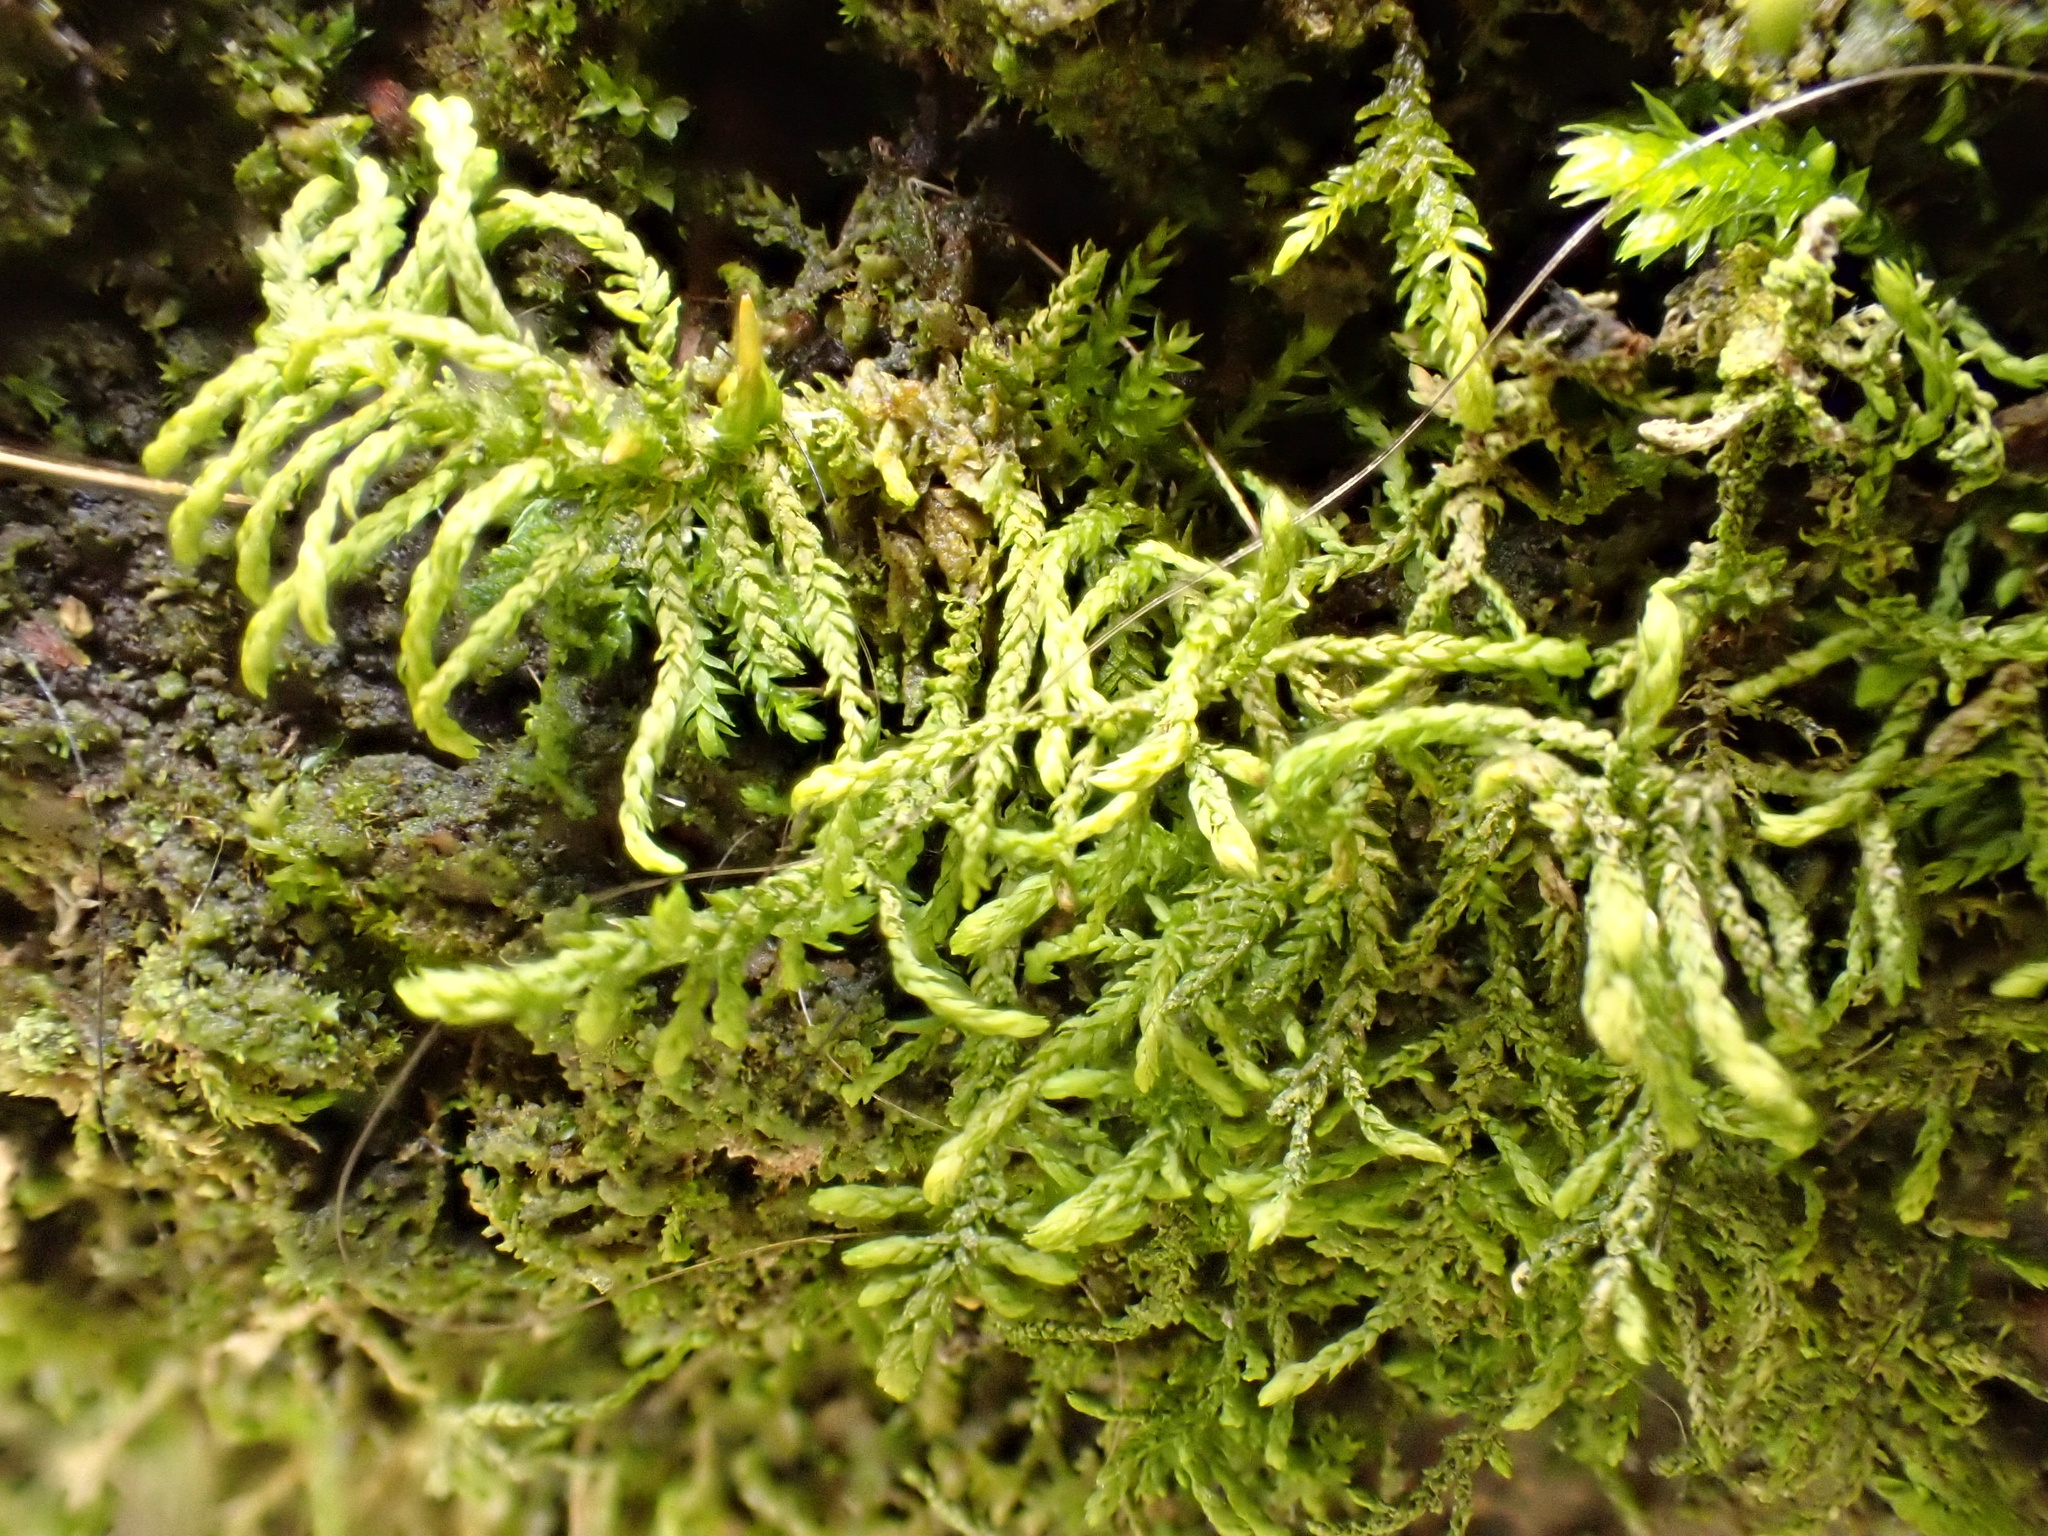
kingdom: Plantae
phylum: Bryophyta
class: Bryopsida
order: Hypnales
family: Leskeaceae
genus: Leskea
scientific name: Leskea polycarpa
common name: Many-fruited leske's moss
